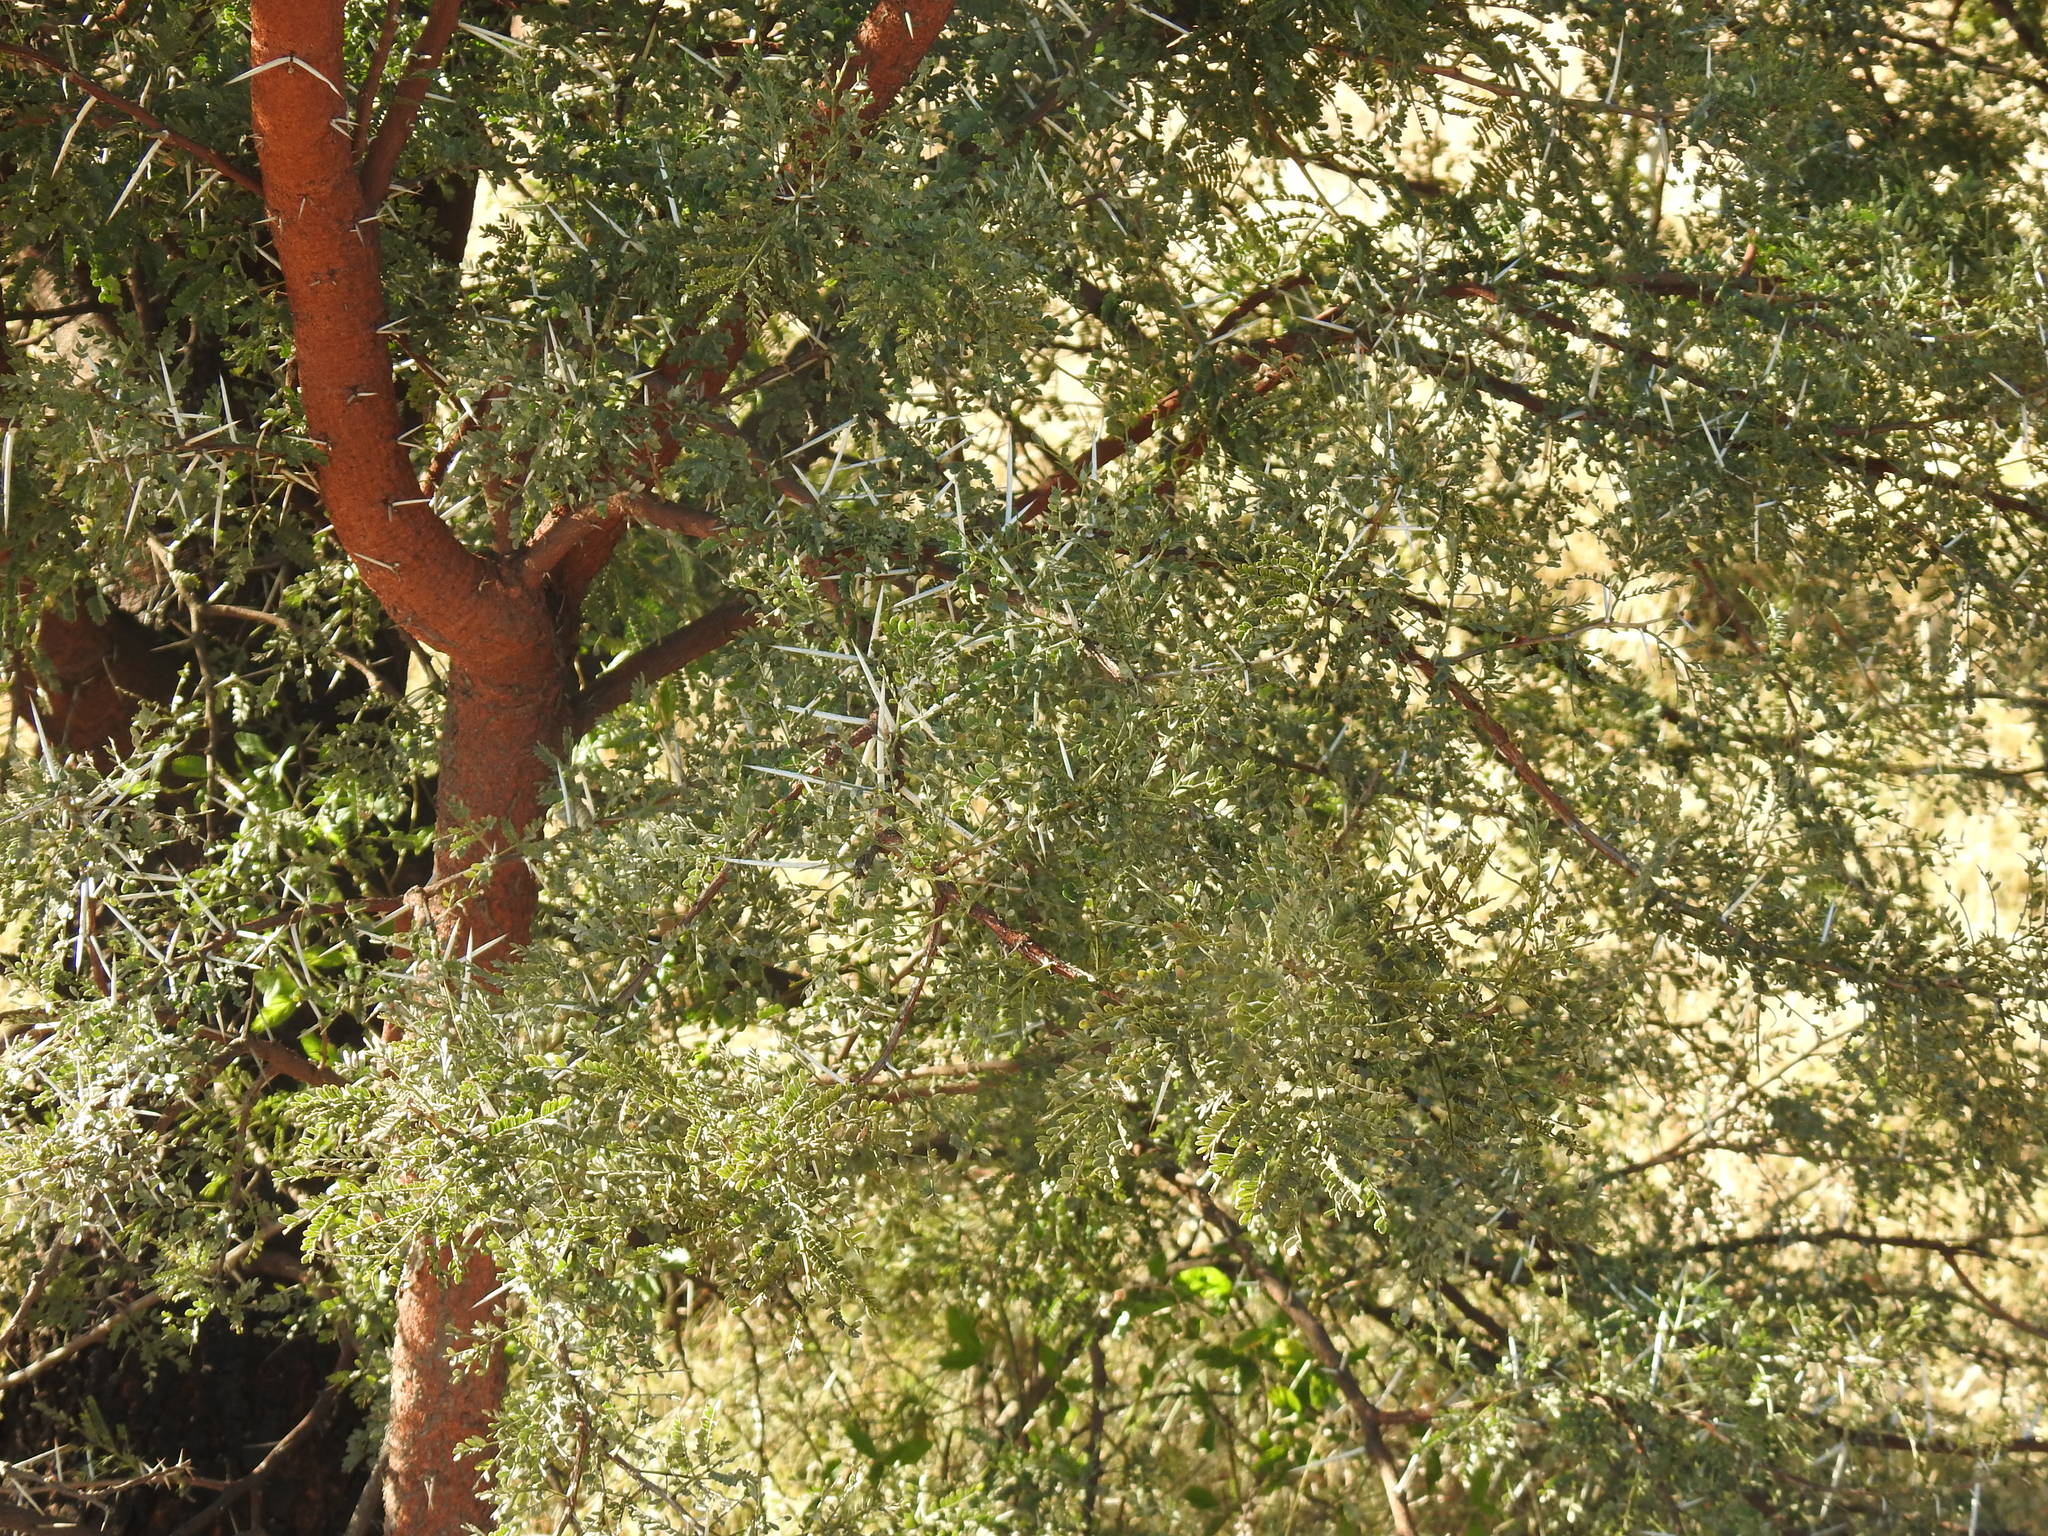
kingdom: Plantae
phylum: Tracheophyta
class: Magnoliopsida
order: Fabales
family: Fabaceae
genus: Vachellia
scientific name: Vachellia karroo
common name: Sweet thorn
